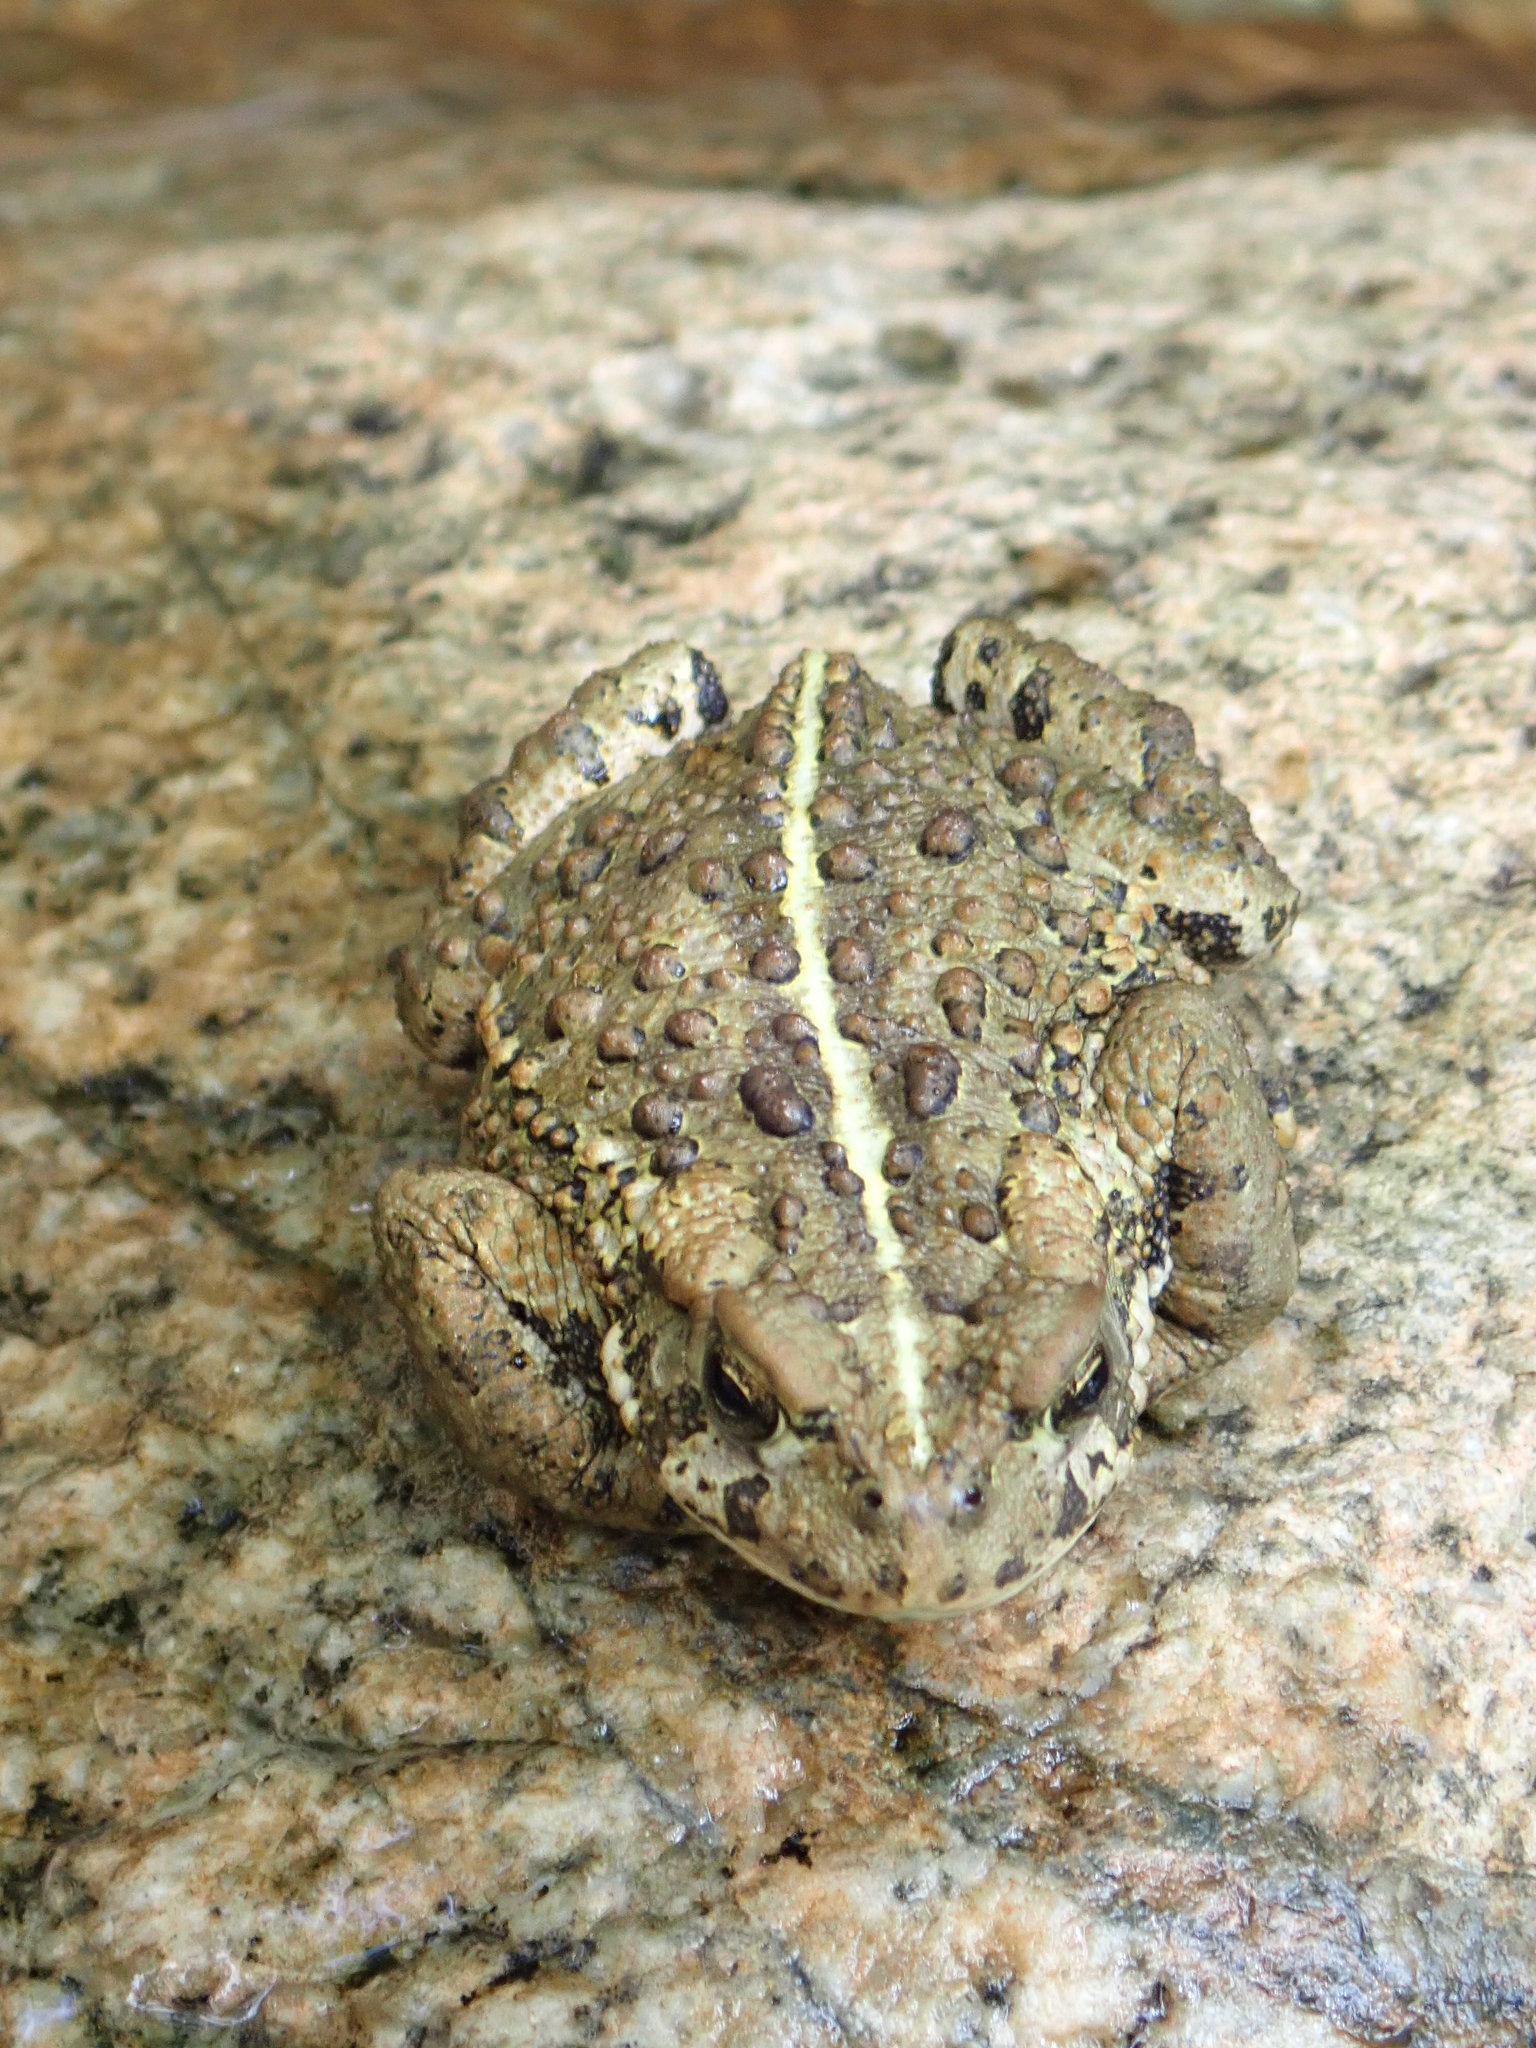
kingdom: Animalia
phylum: Chordata
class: Amphibia
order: Anura
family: Bufonidae
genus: Anaxyrus
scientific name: Anaxyrus boreas
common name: Western toad
